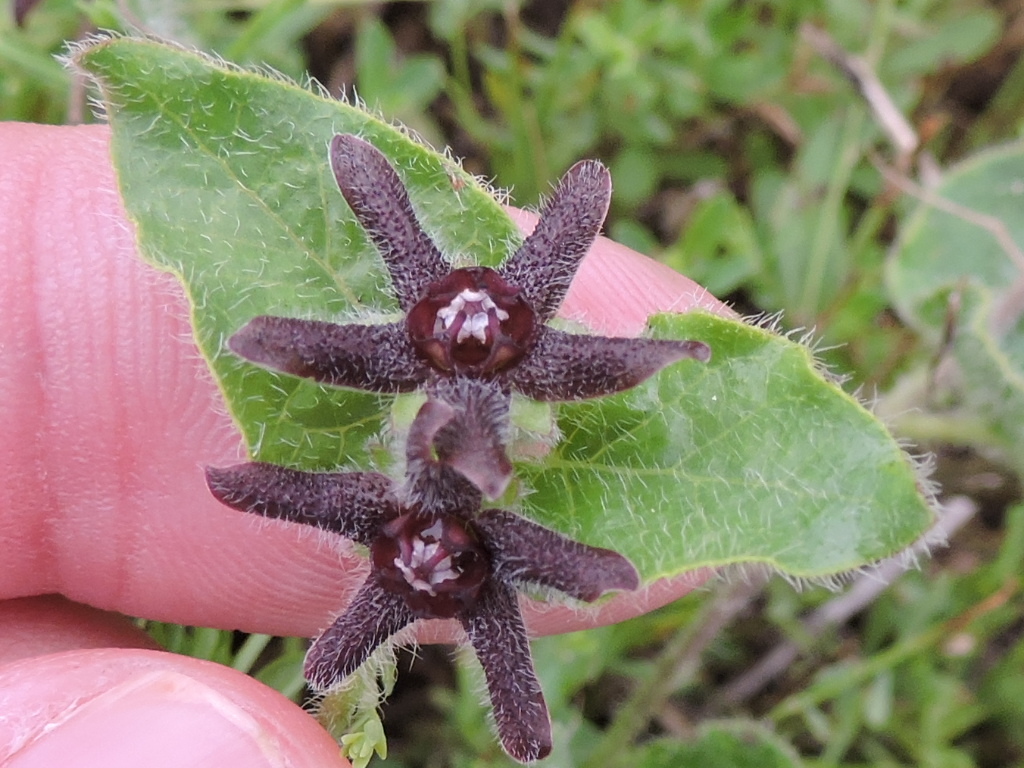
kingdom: Plantae
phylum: Tracheophyta
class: Magnoliopsida
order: Gentianales
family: Apocynaceae
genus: Chthamalia
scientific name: Chthamalia biflora
